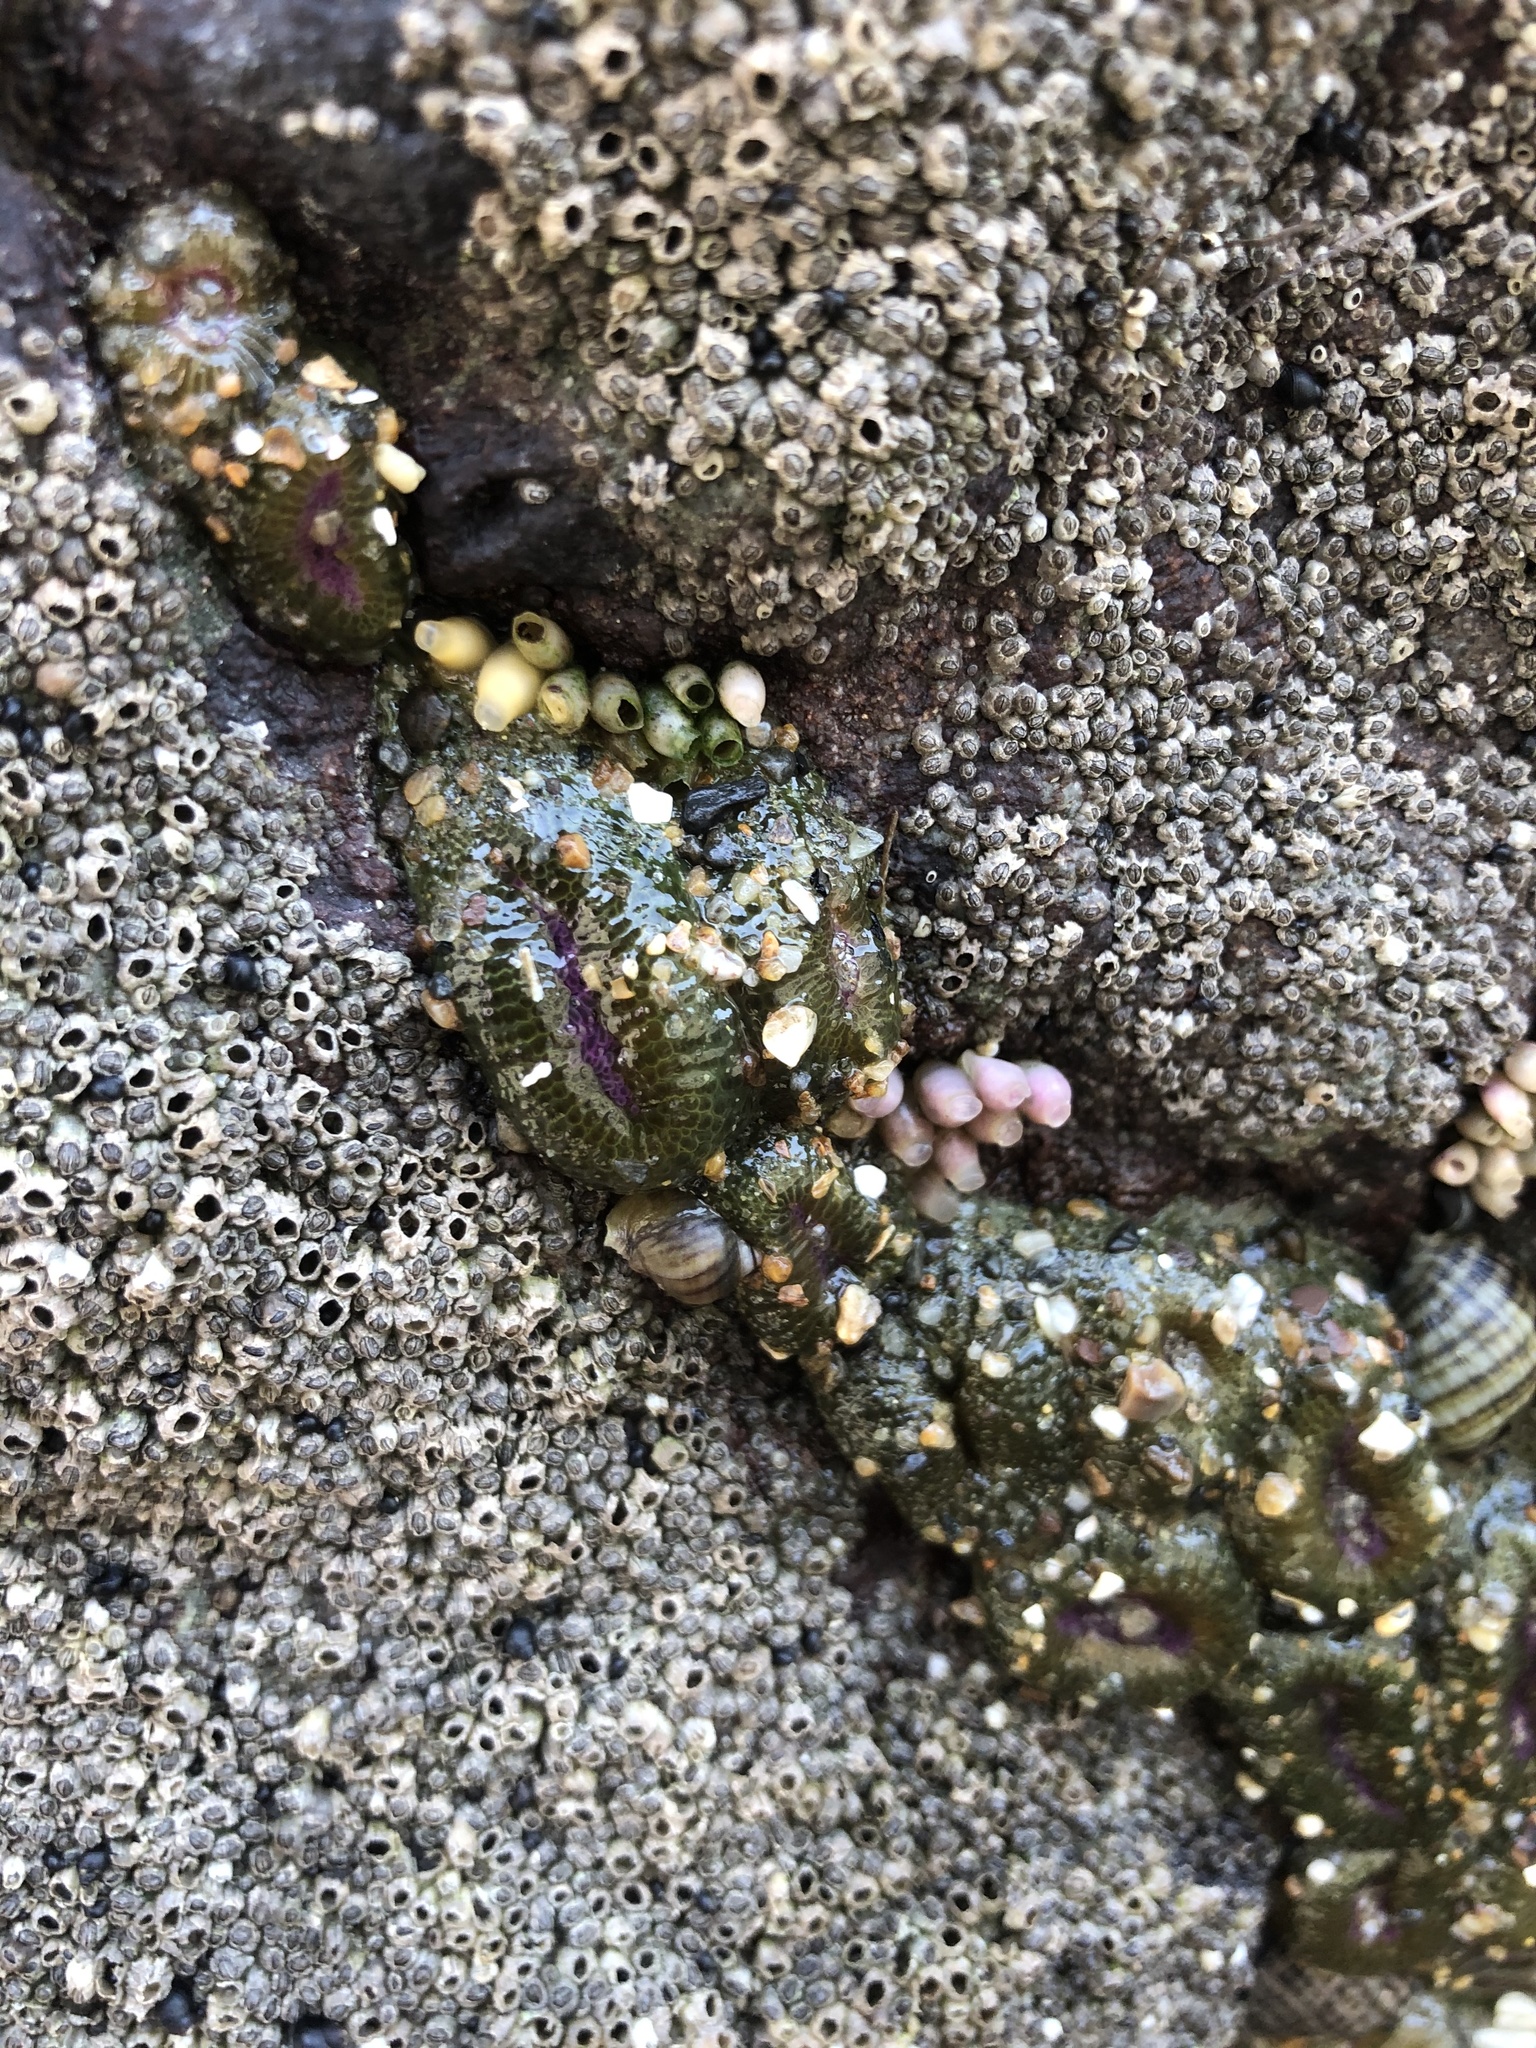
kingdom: Animalia
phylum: Cnidaria
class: Anthozoa
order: Actiniaria
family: Actiniidae
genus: Anthopleura
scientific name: Anthopleura elegantissima
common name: Clonal anemone
